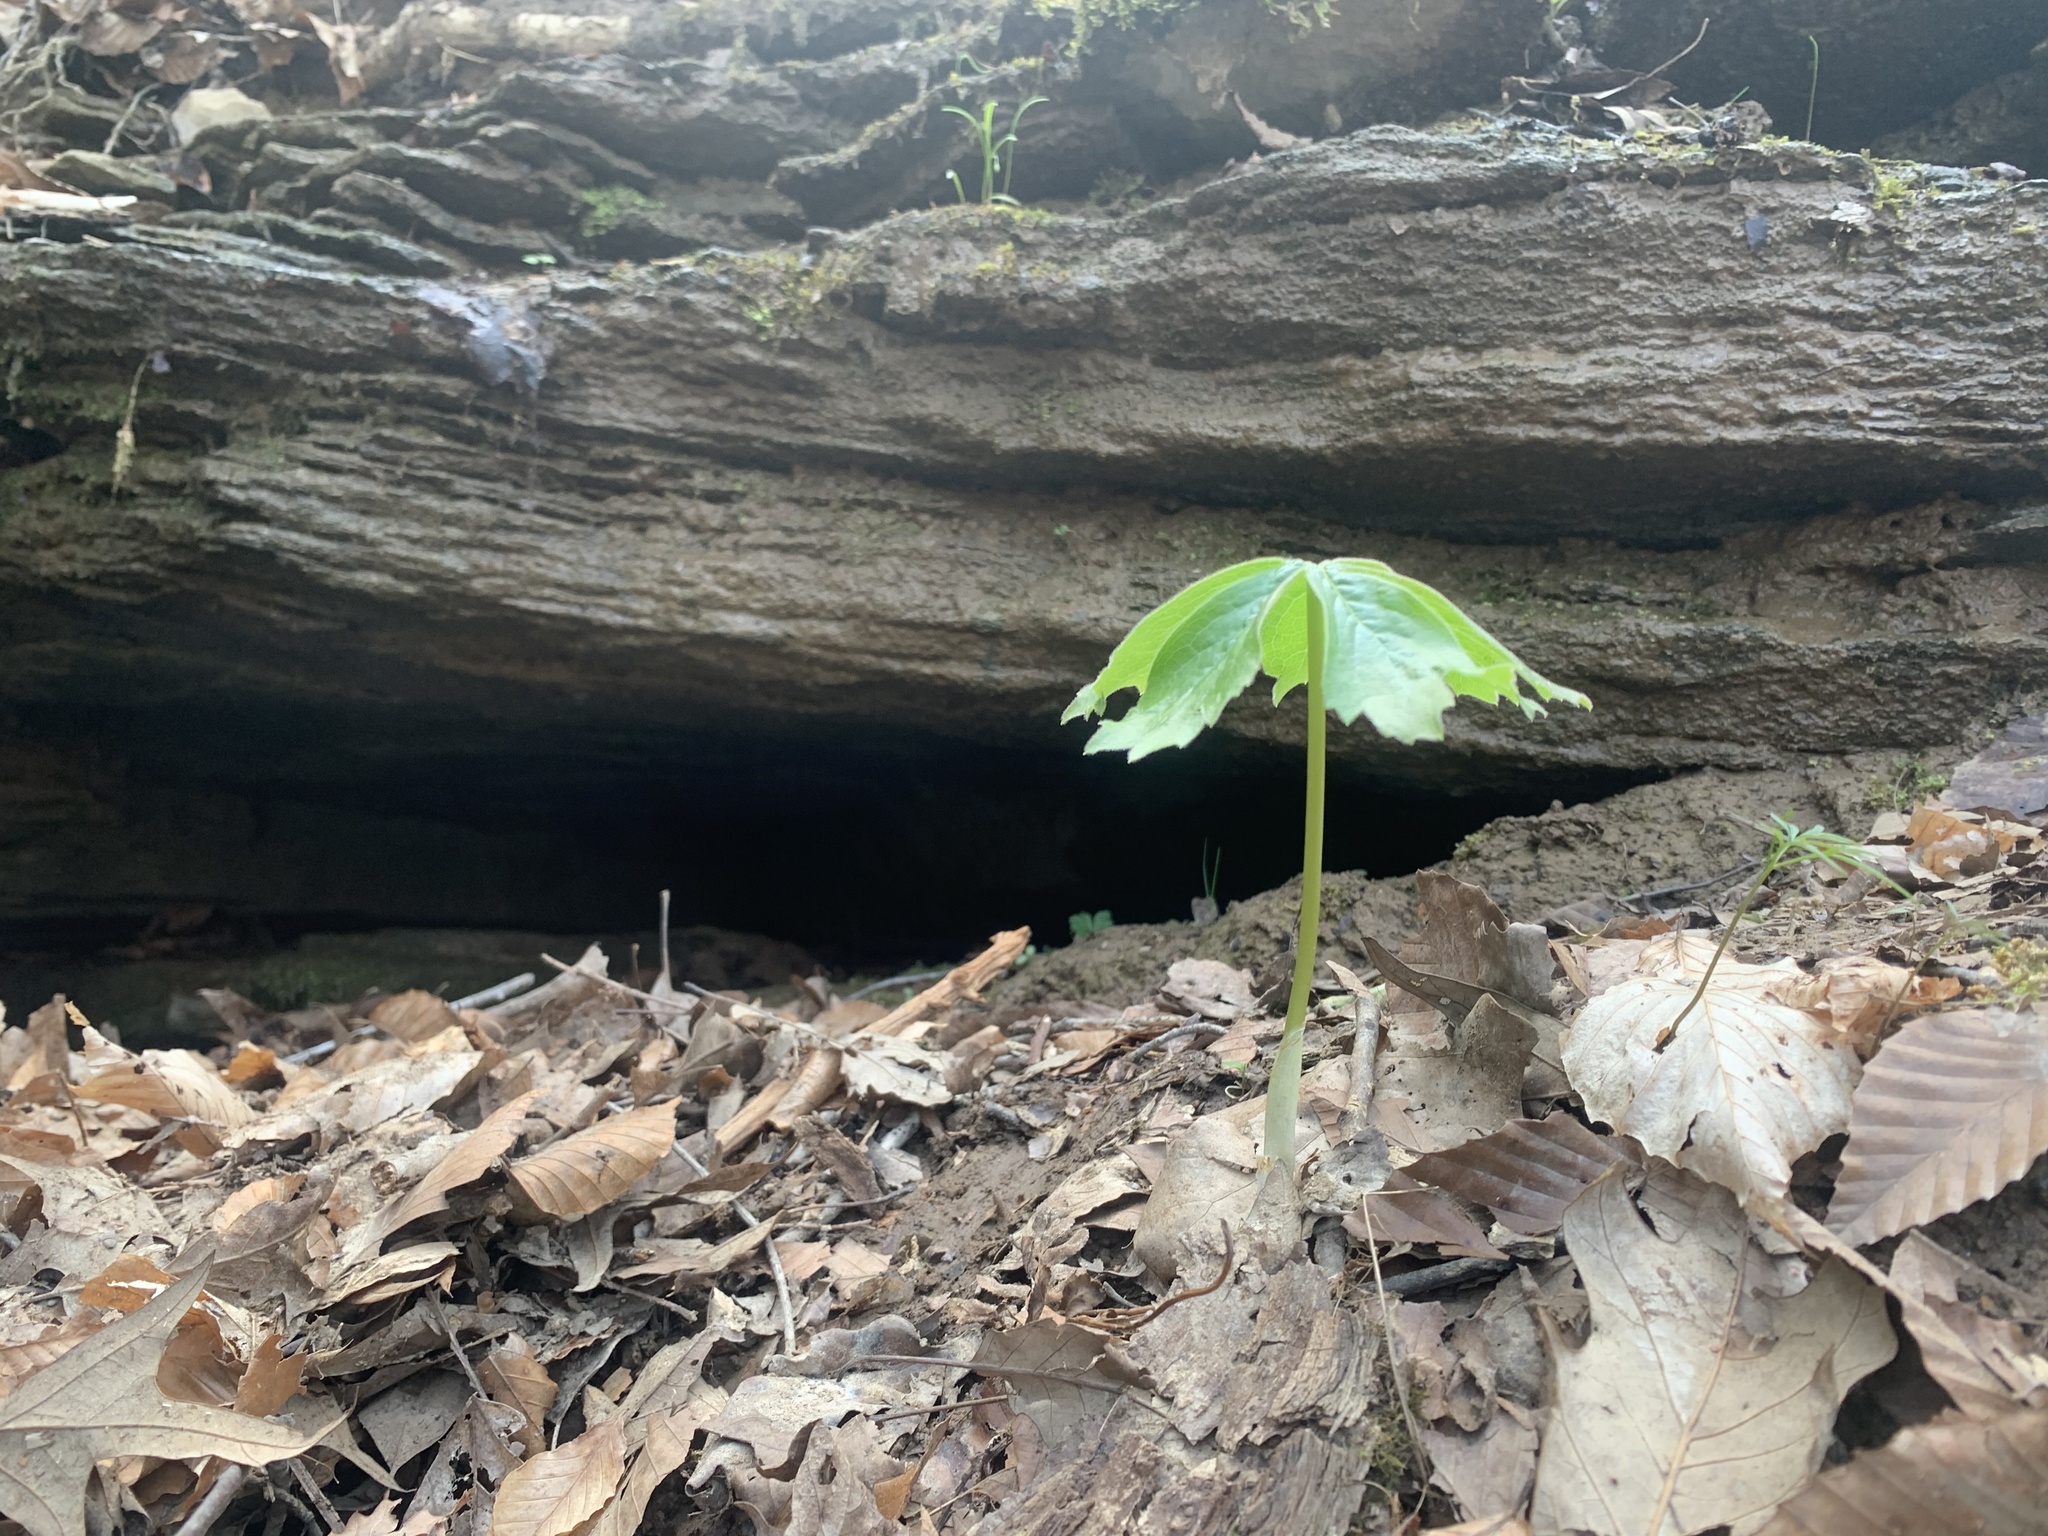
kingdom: Plantae
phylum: Tracheophyta
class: Magnoliopsida
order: Ranunculales
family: Berberidaceae
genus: Podophyllum
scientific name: Podophyllum peltatum
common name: Wild mandrake
